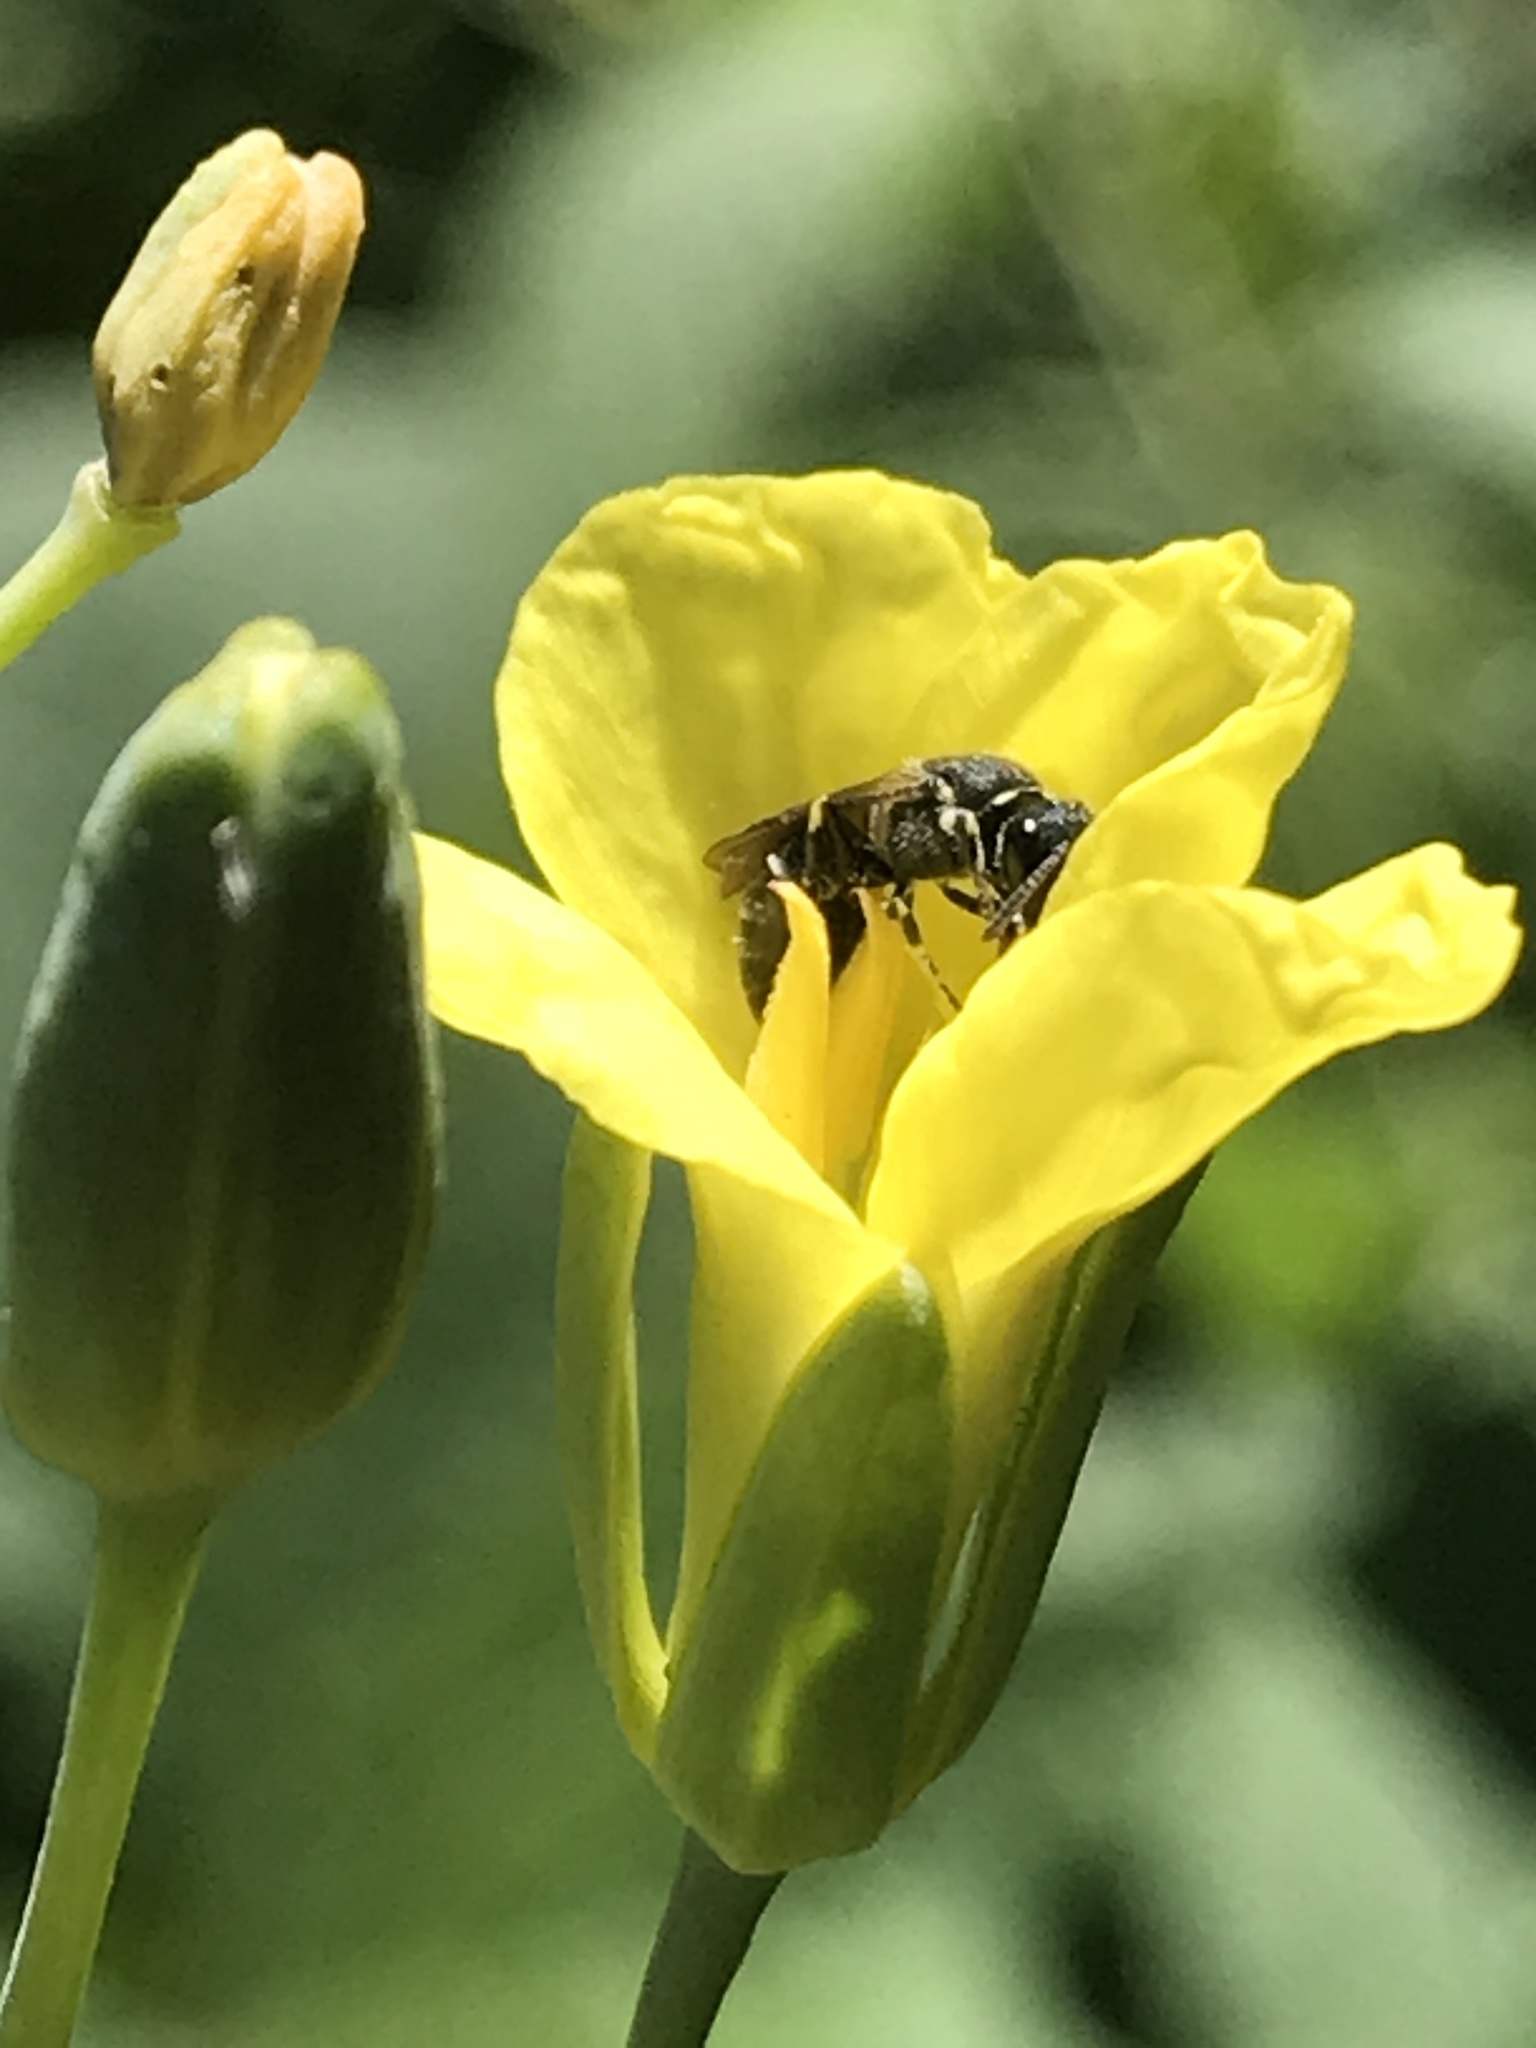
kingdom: Animalia
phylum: Arthropoda
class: Insecta
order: Hymenoptera
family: Colletidae
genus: Hylaeus
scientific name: Hylaeus
